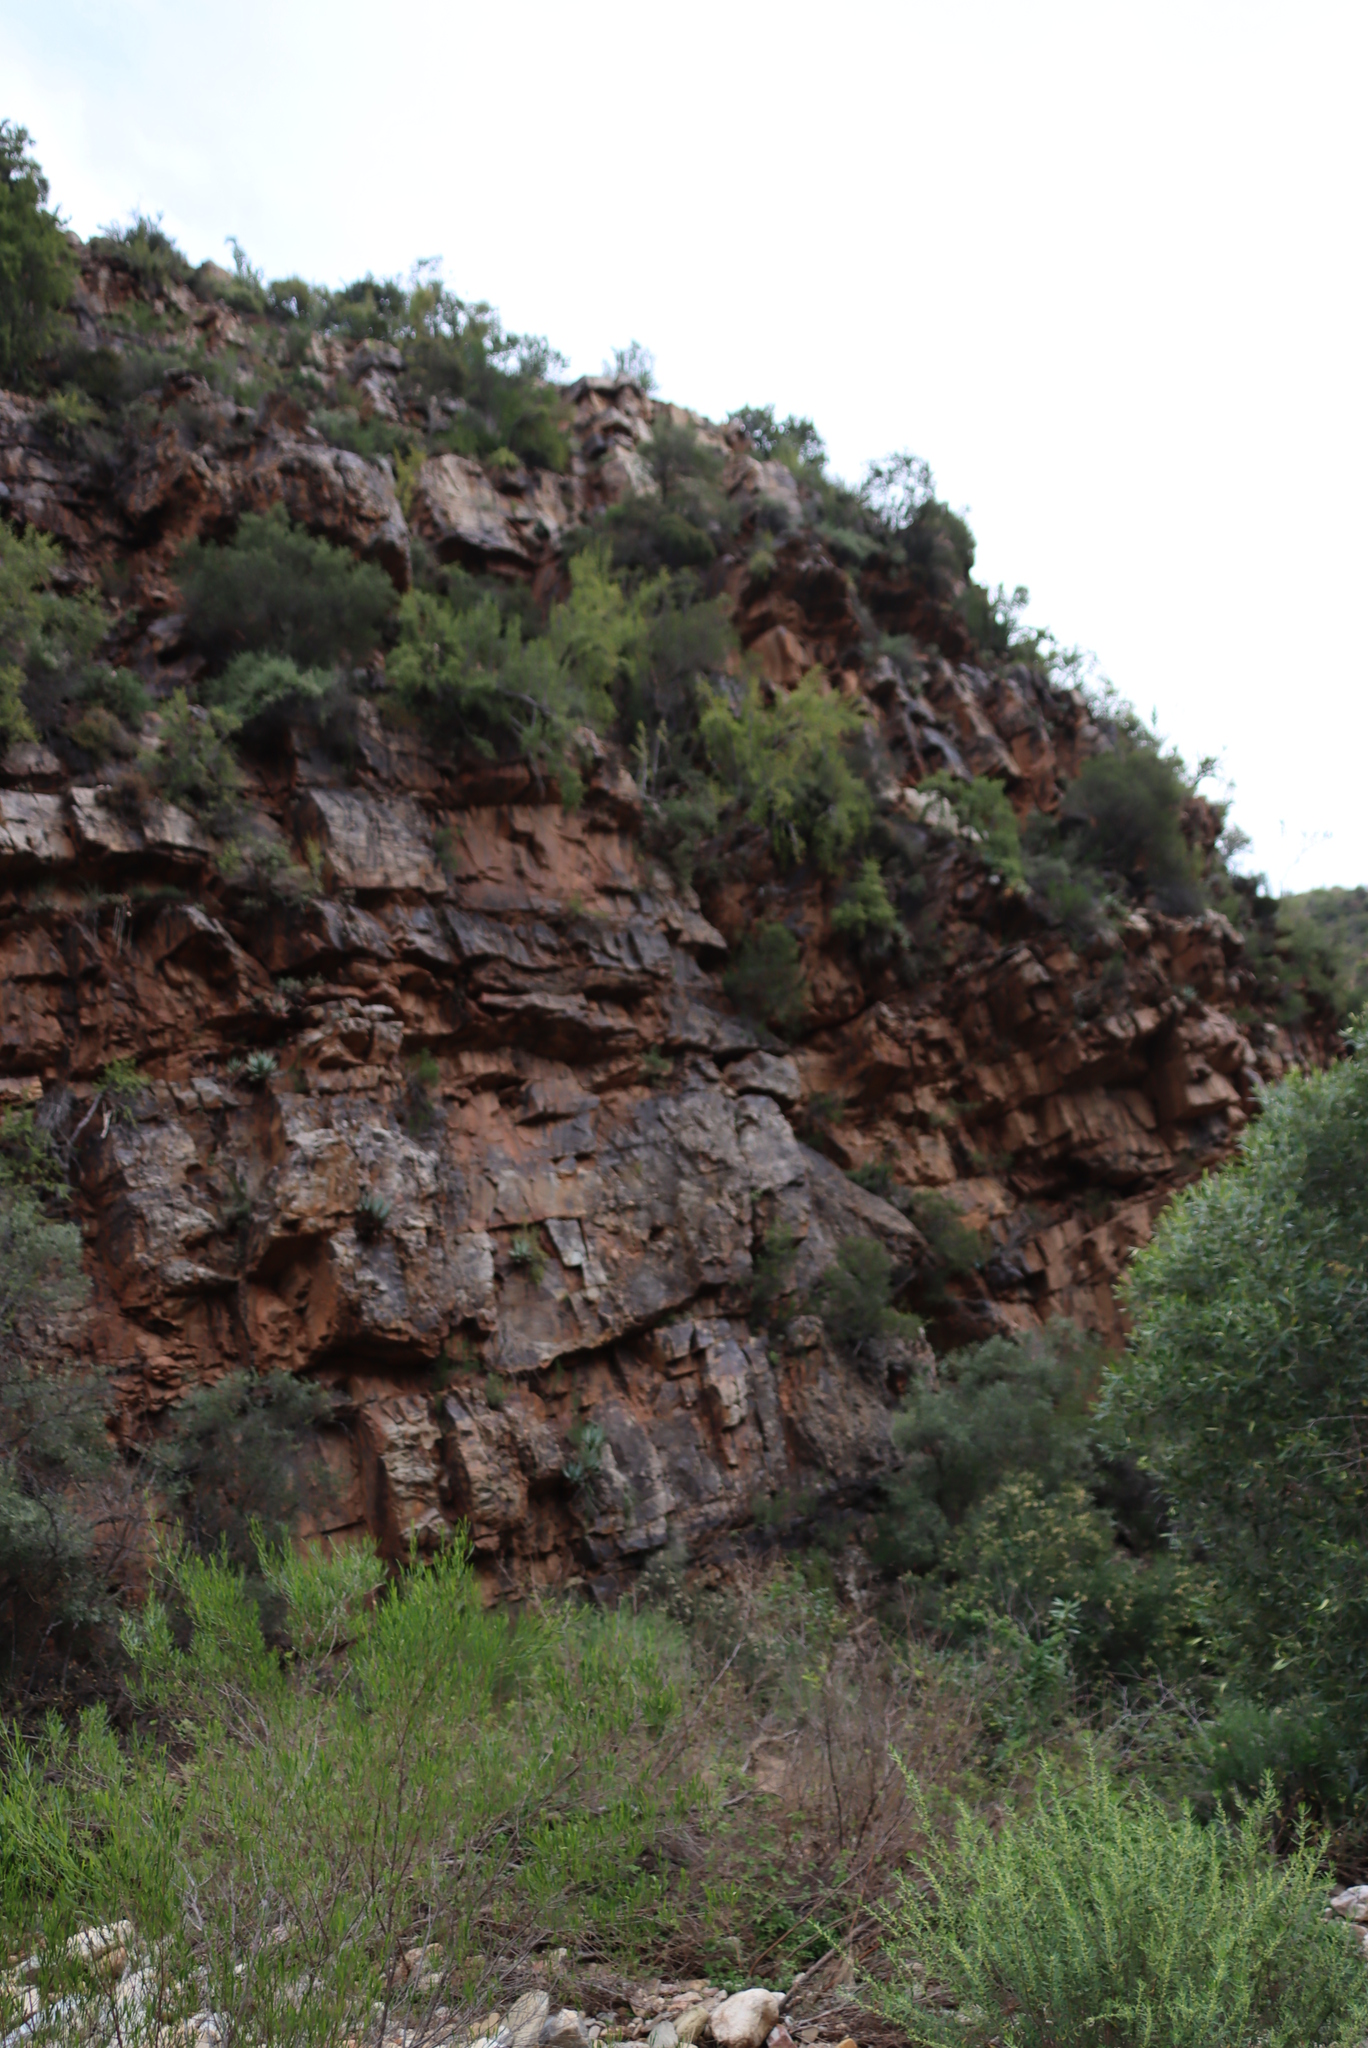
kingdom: Plantae
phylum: Tracheophyta
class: Magnoliopsida
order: Caryophyllales
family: Didiereaceae
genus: Portulacaria
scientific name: Portulacaria afra
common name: Elephant-bush
